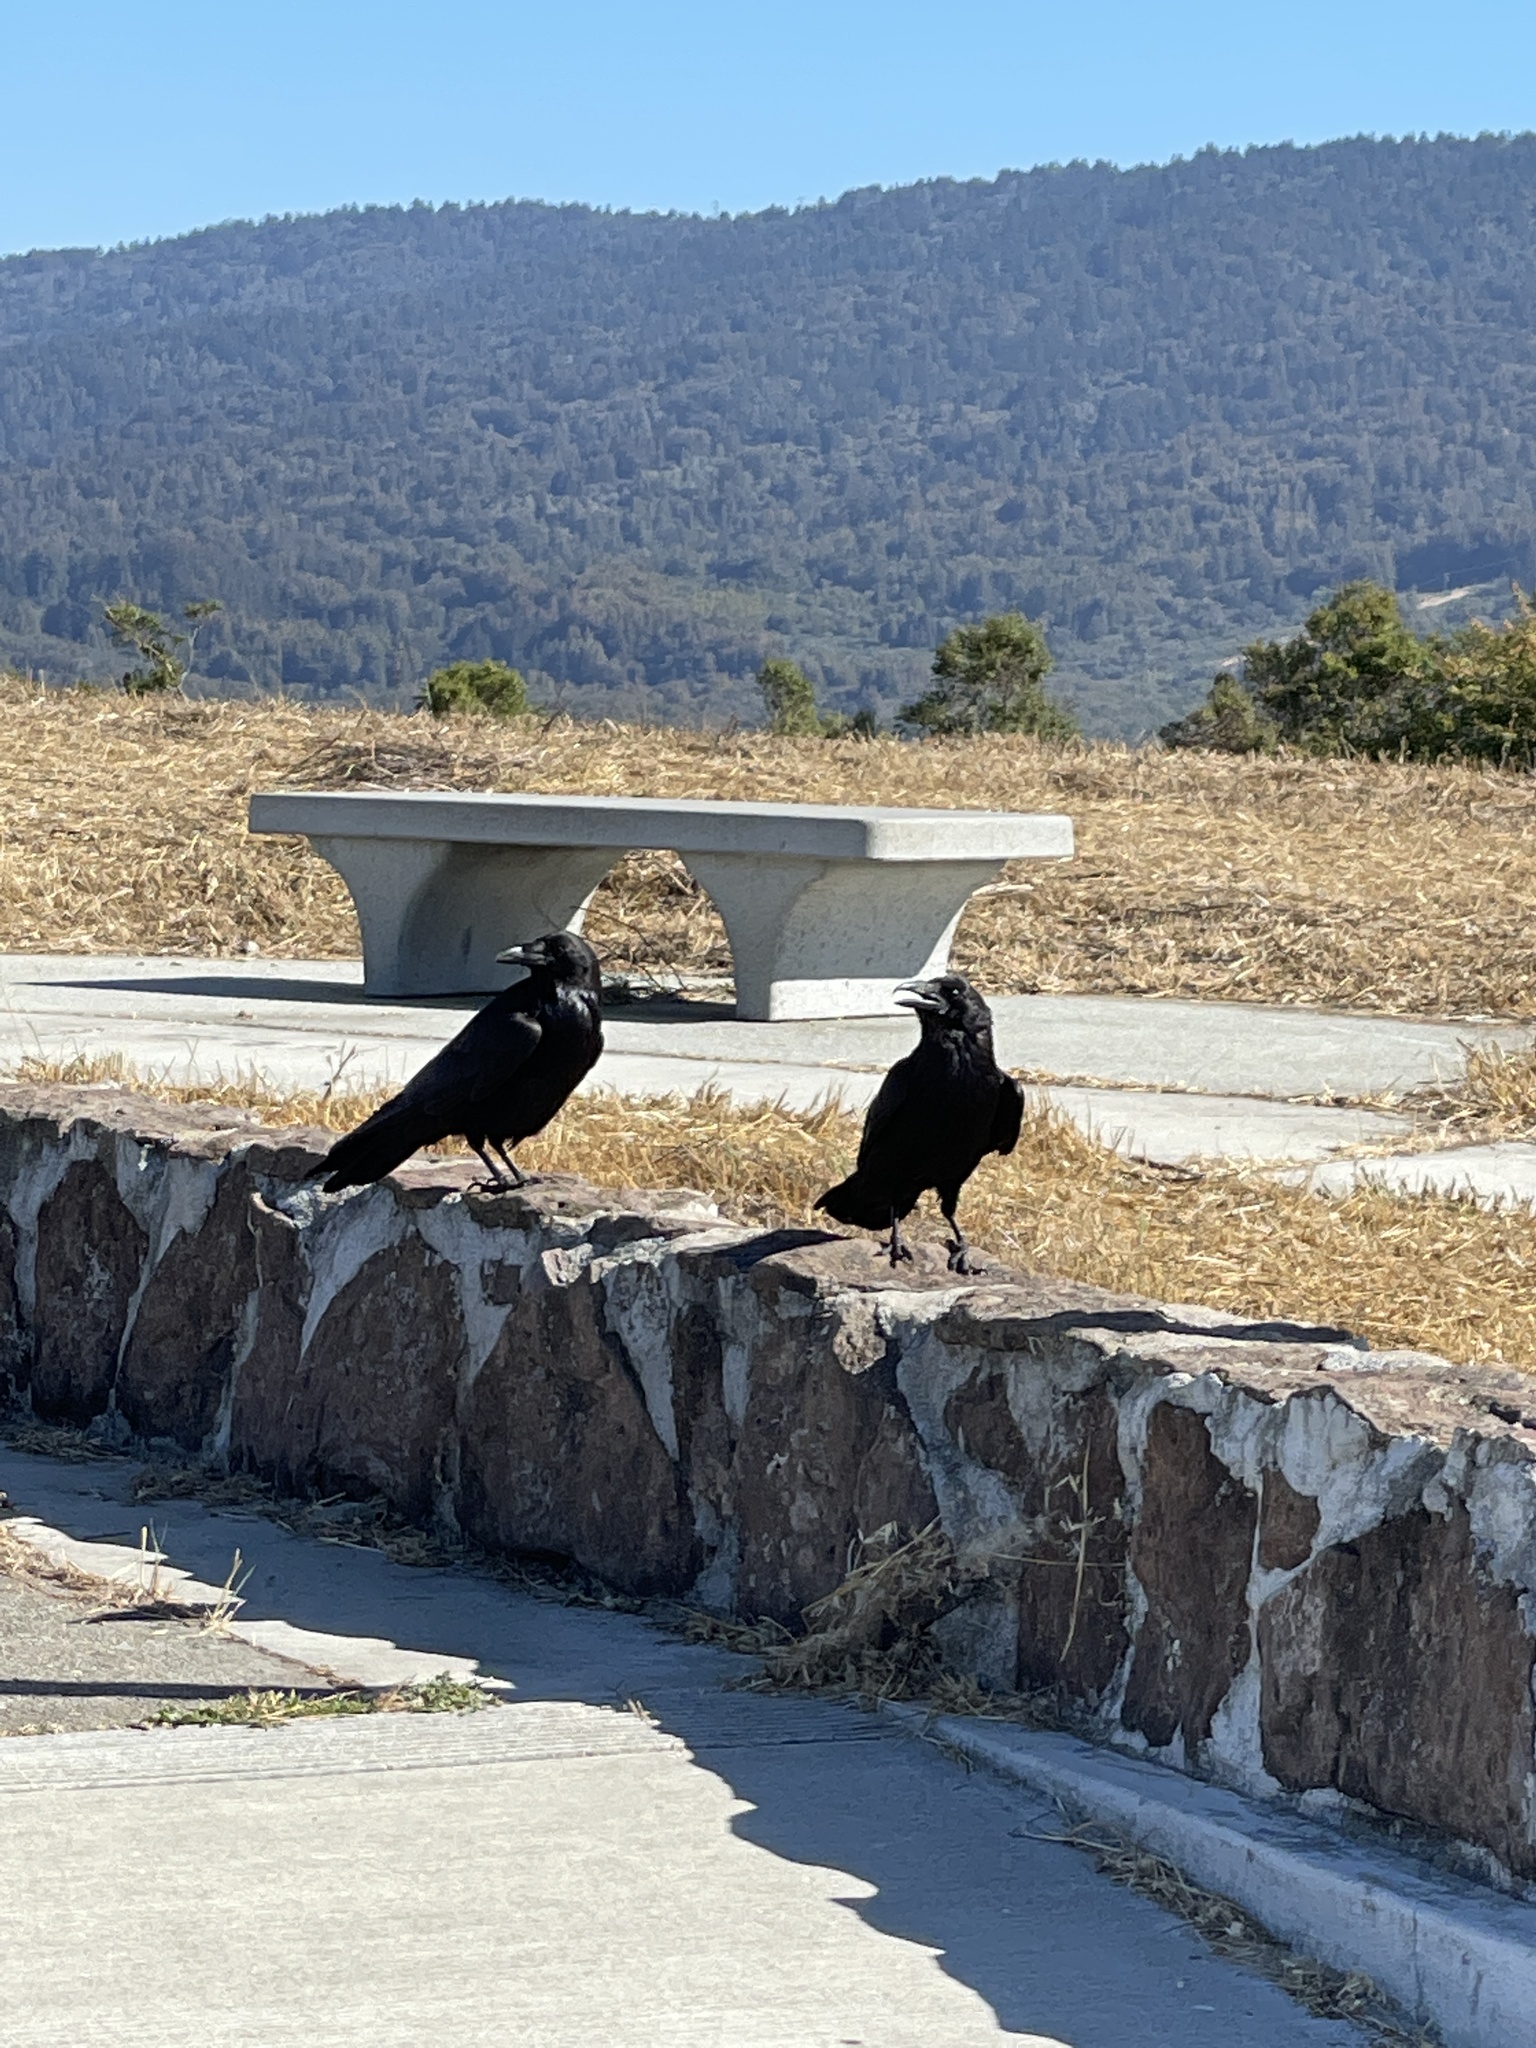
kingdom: Animalia
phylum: Chordata
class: Aves
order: Passeriformes
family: Corvidae
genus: Corvus
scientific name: Corvus corax
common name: Common raven
